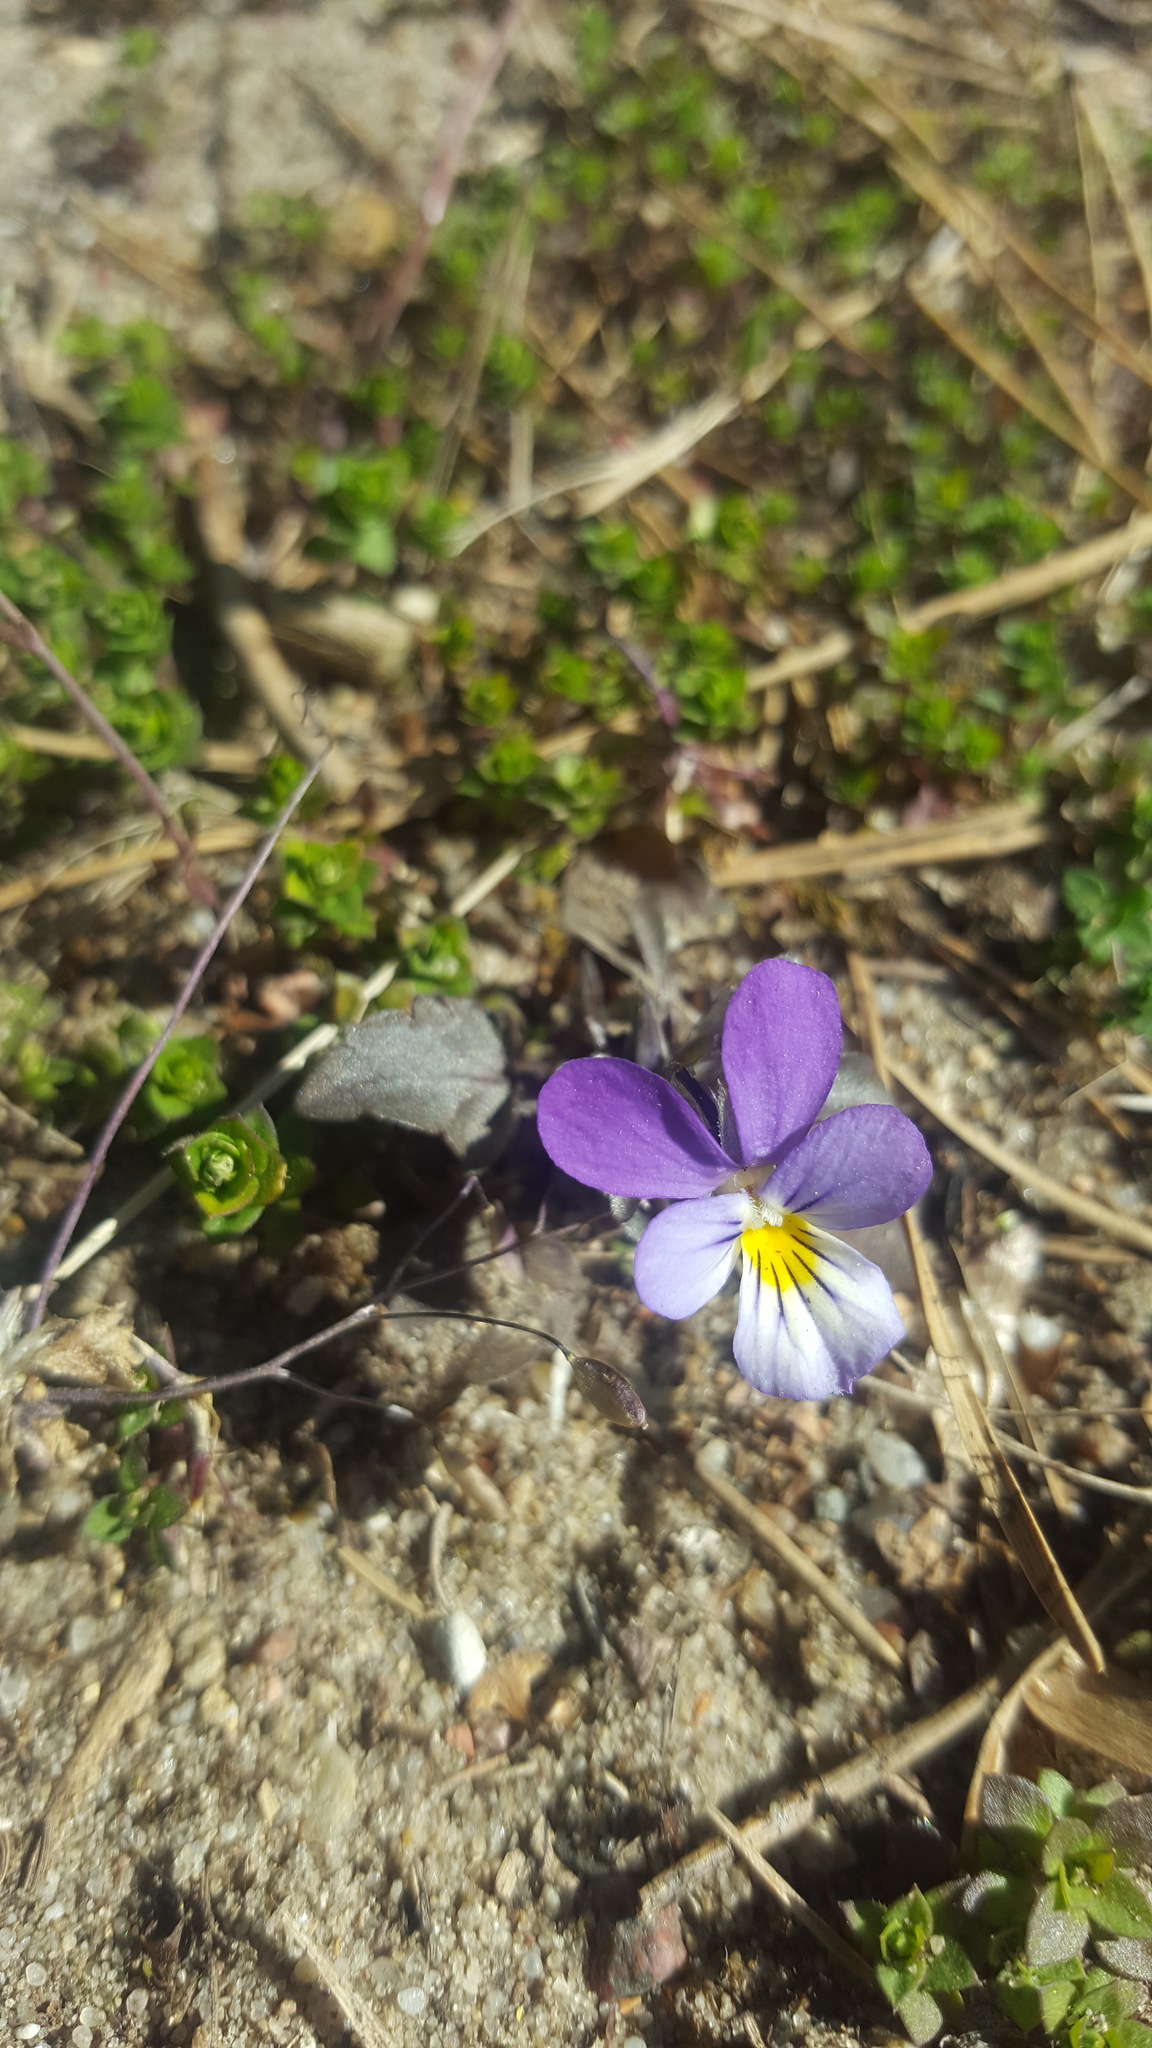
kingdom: Plantae
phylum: Tracheophyta
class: Magnoliopsida
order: Malpighiales
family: Violaceae
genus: Viola
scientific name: Viola tricolor
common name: Pansy
